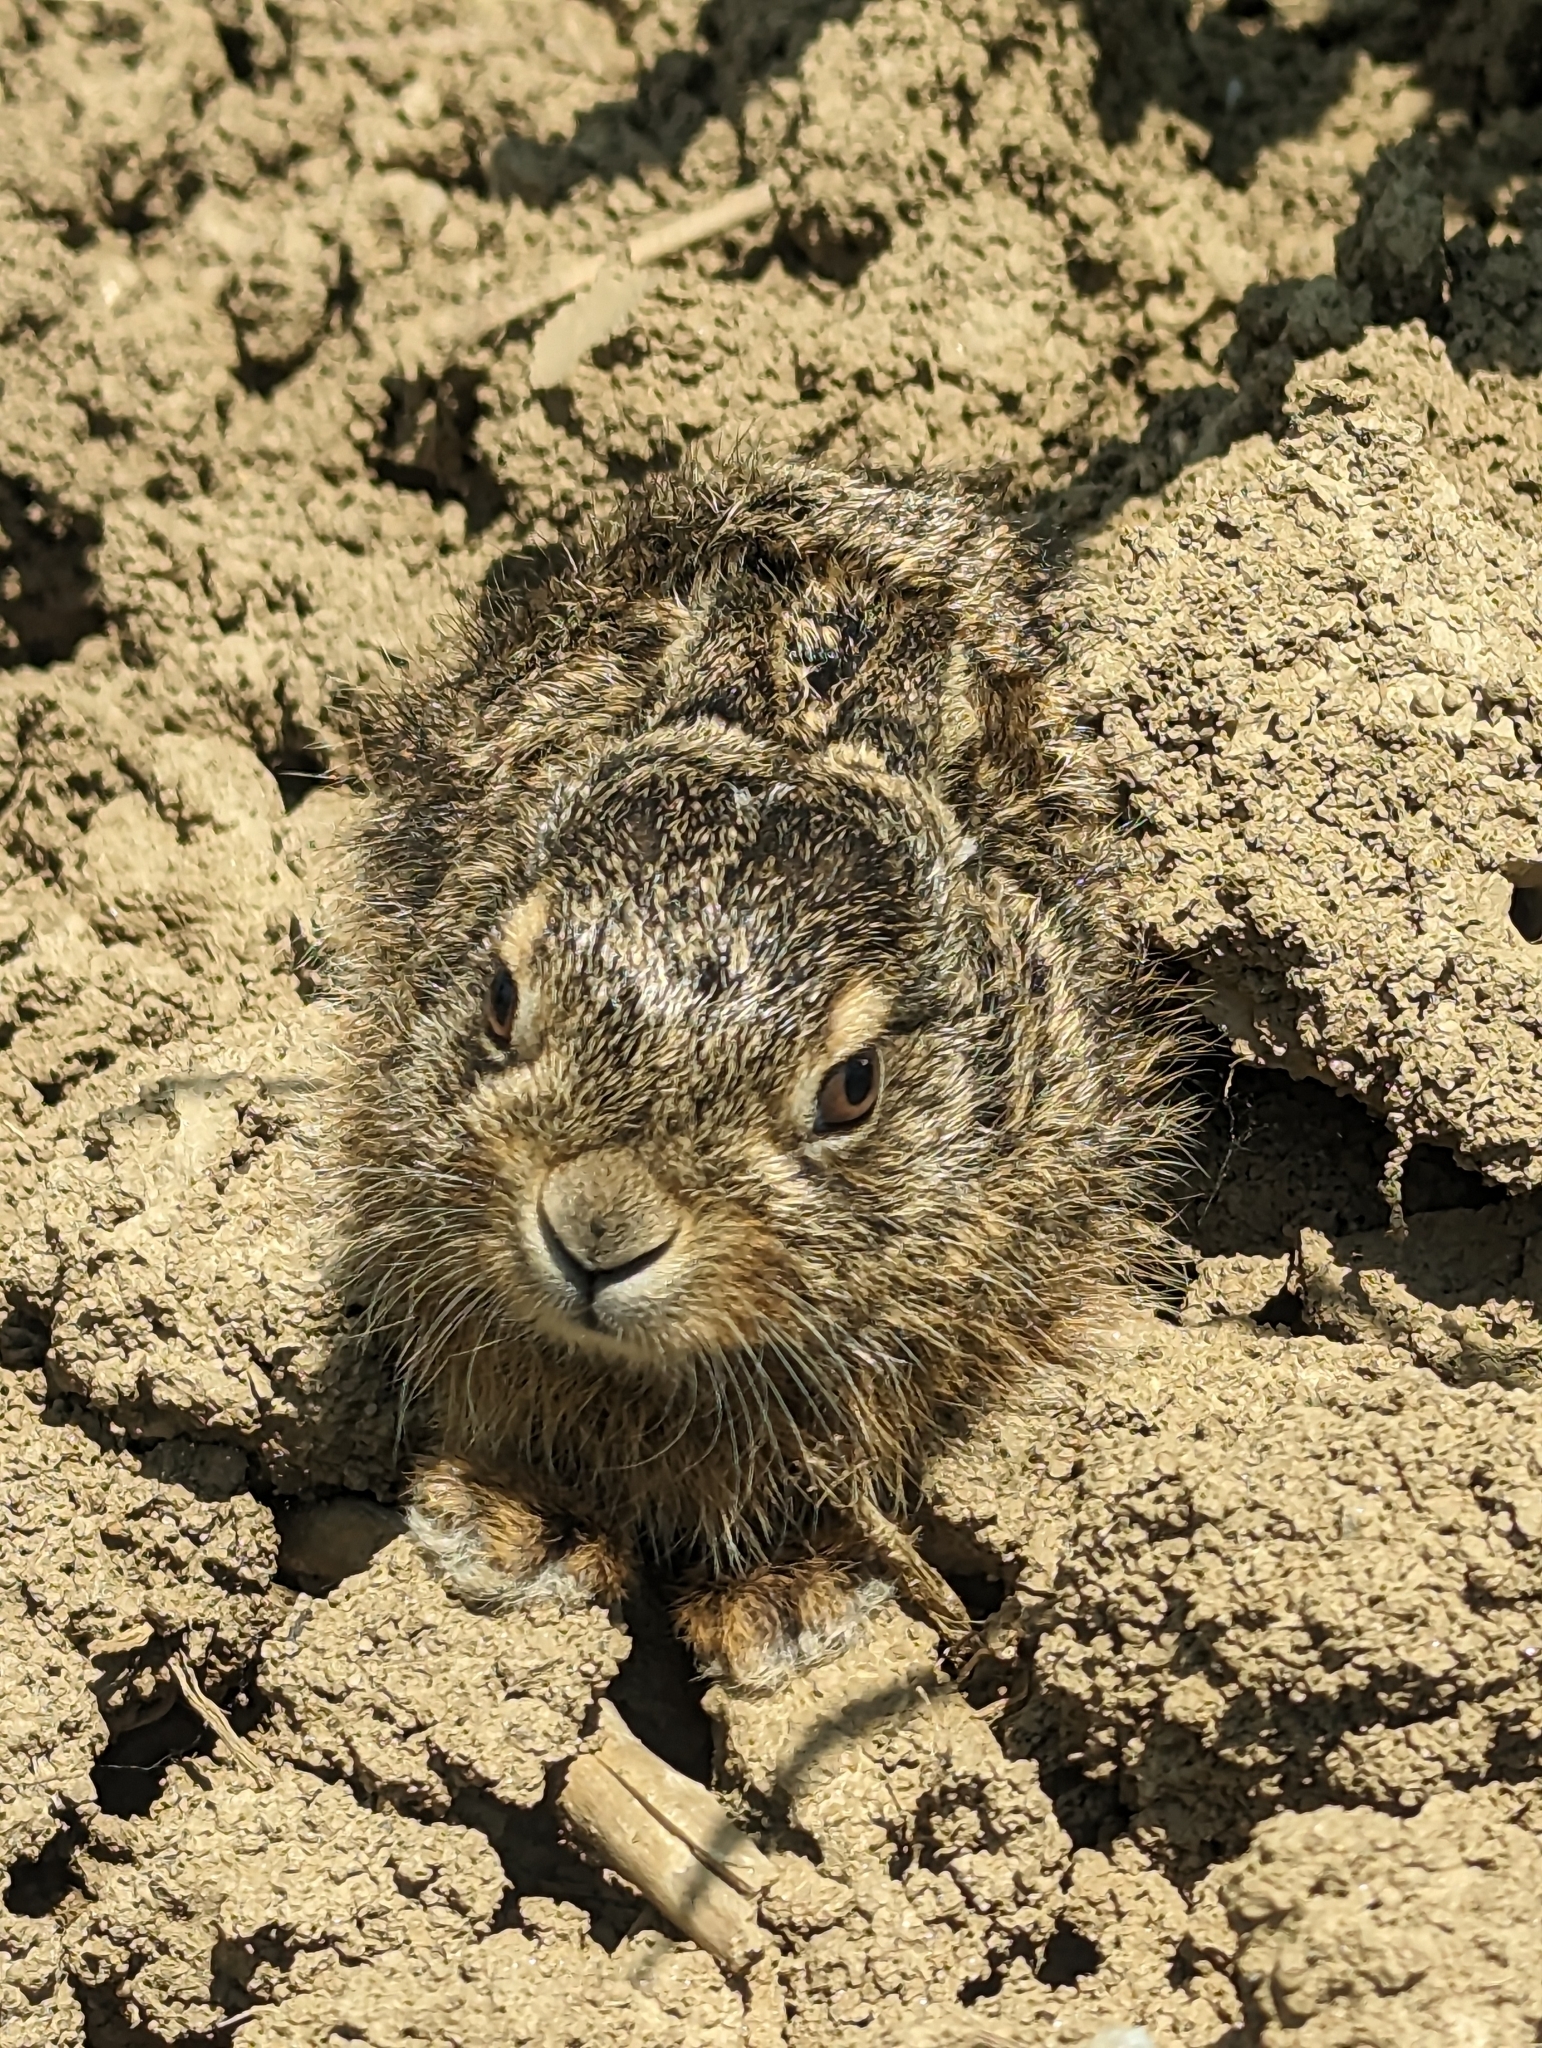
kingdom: Animalia
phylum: Chordata
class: Mammalia
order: Lagomorpha
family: Leporidae
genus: Lepus
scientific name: Lepus europaeus
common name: European hare
